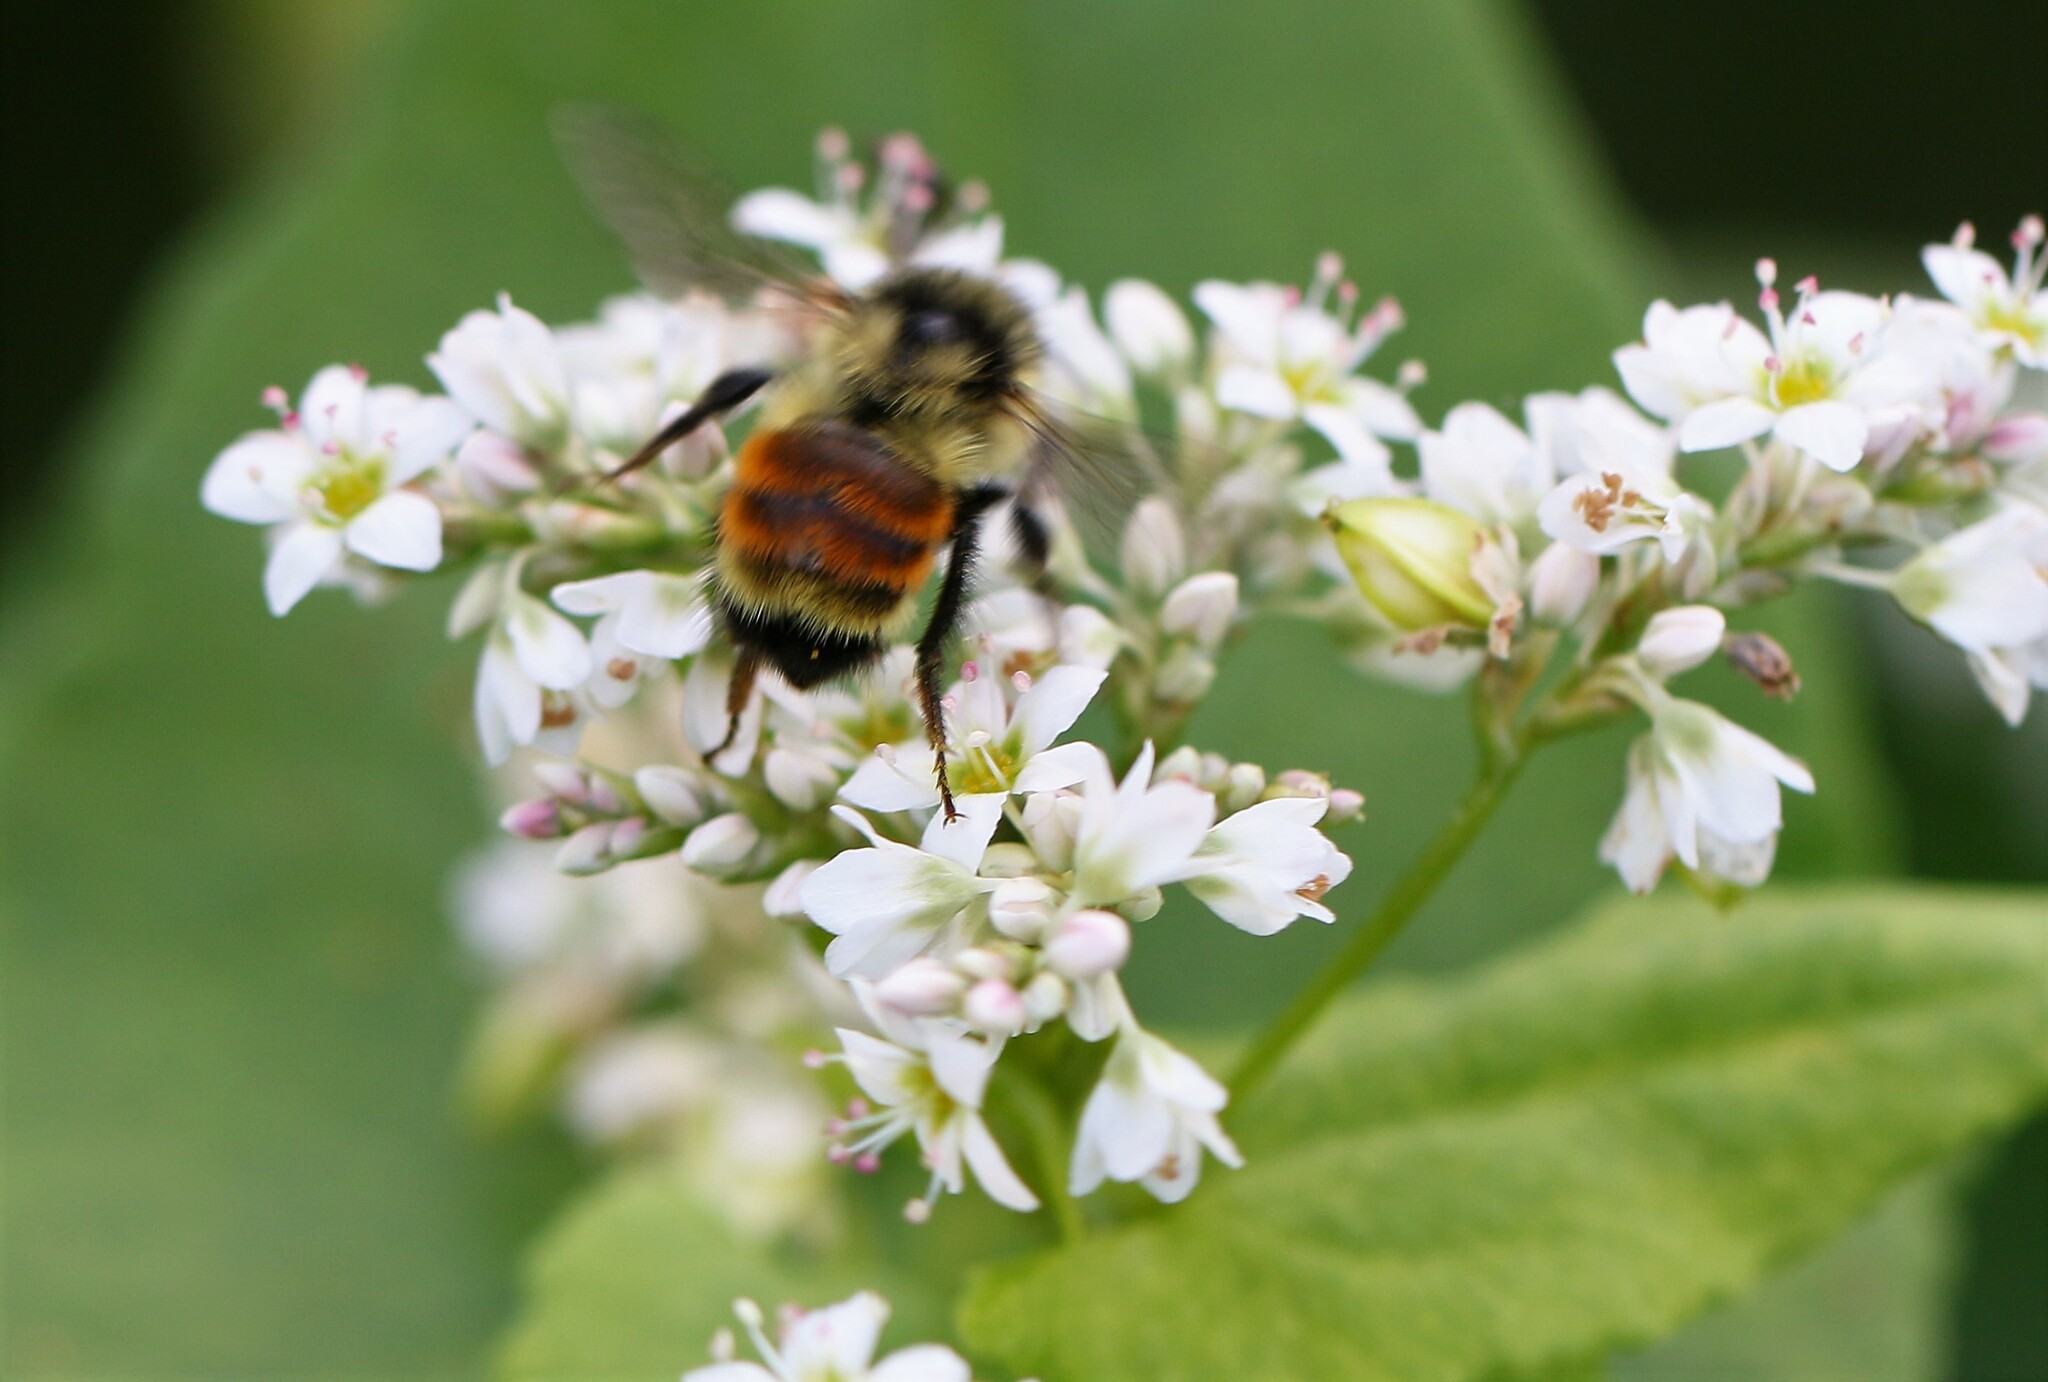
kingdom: Animalia
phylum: Arthropoda
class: Insecta
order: Hymenoptera
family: Apidae
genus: Bombus
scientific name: Bombus ternarius
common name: Tri-colored bumble bee
